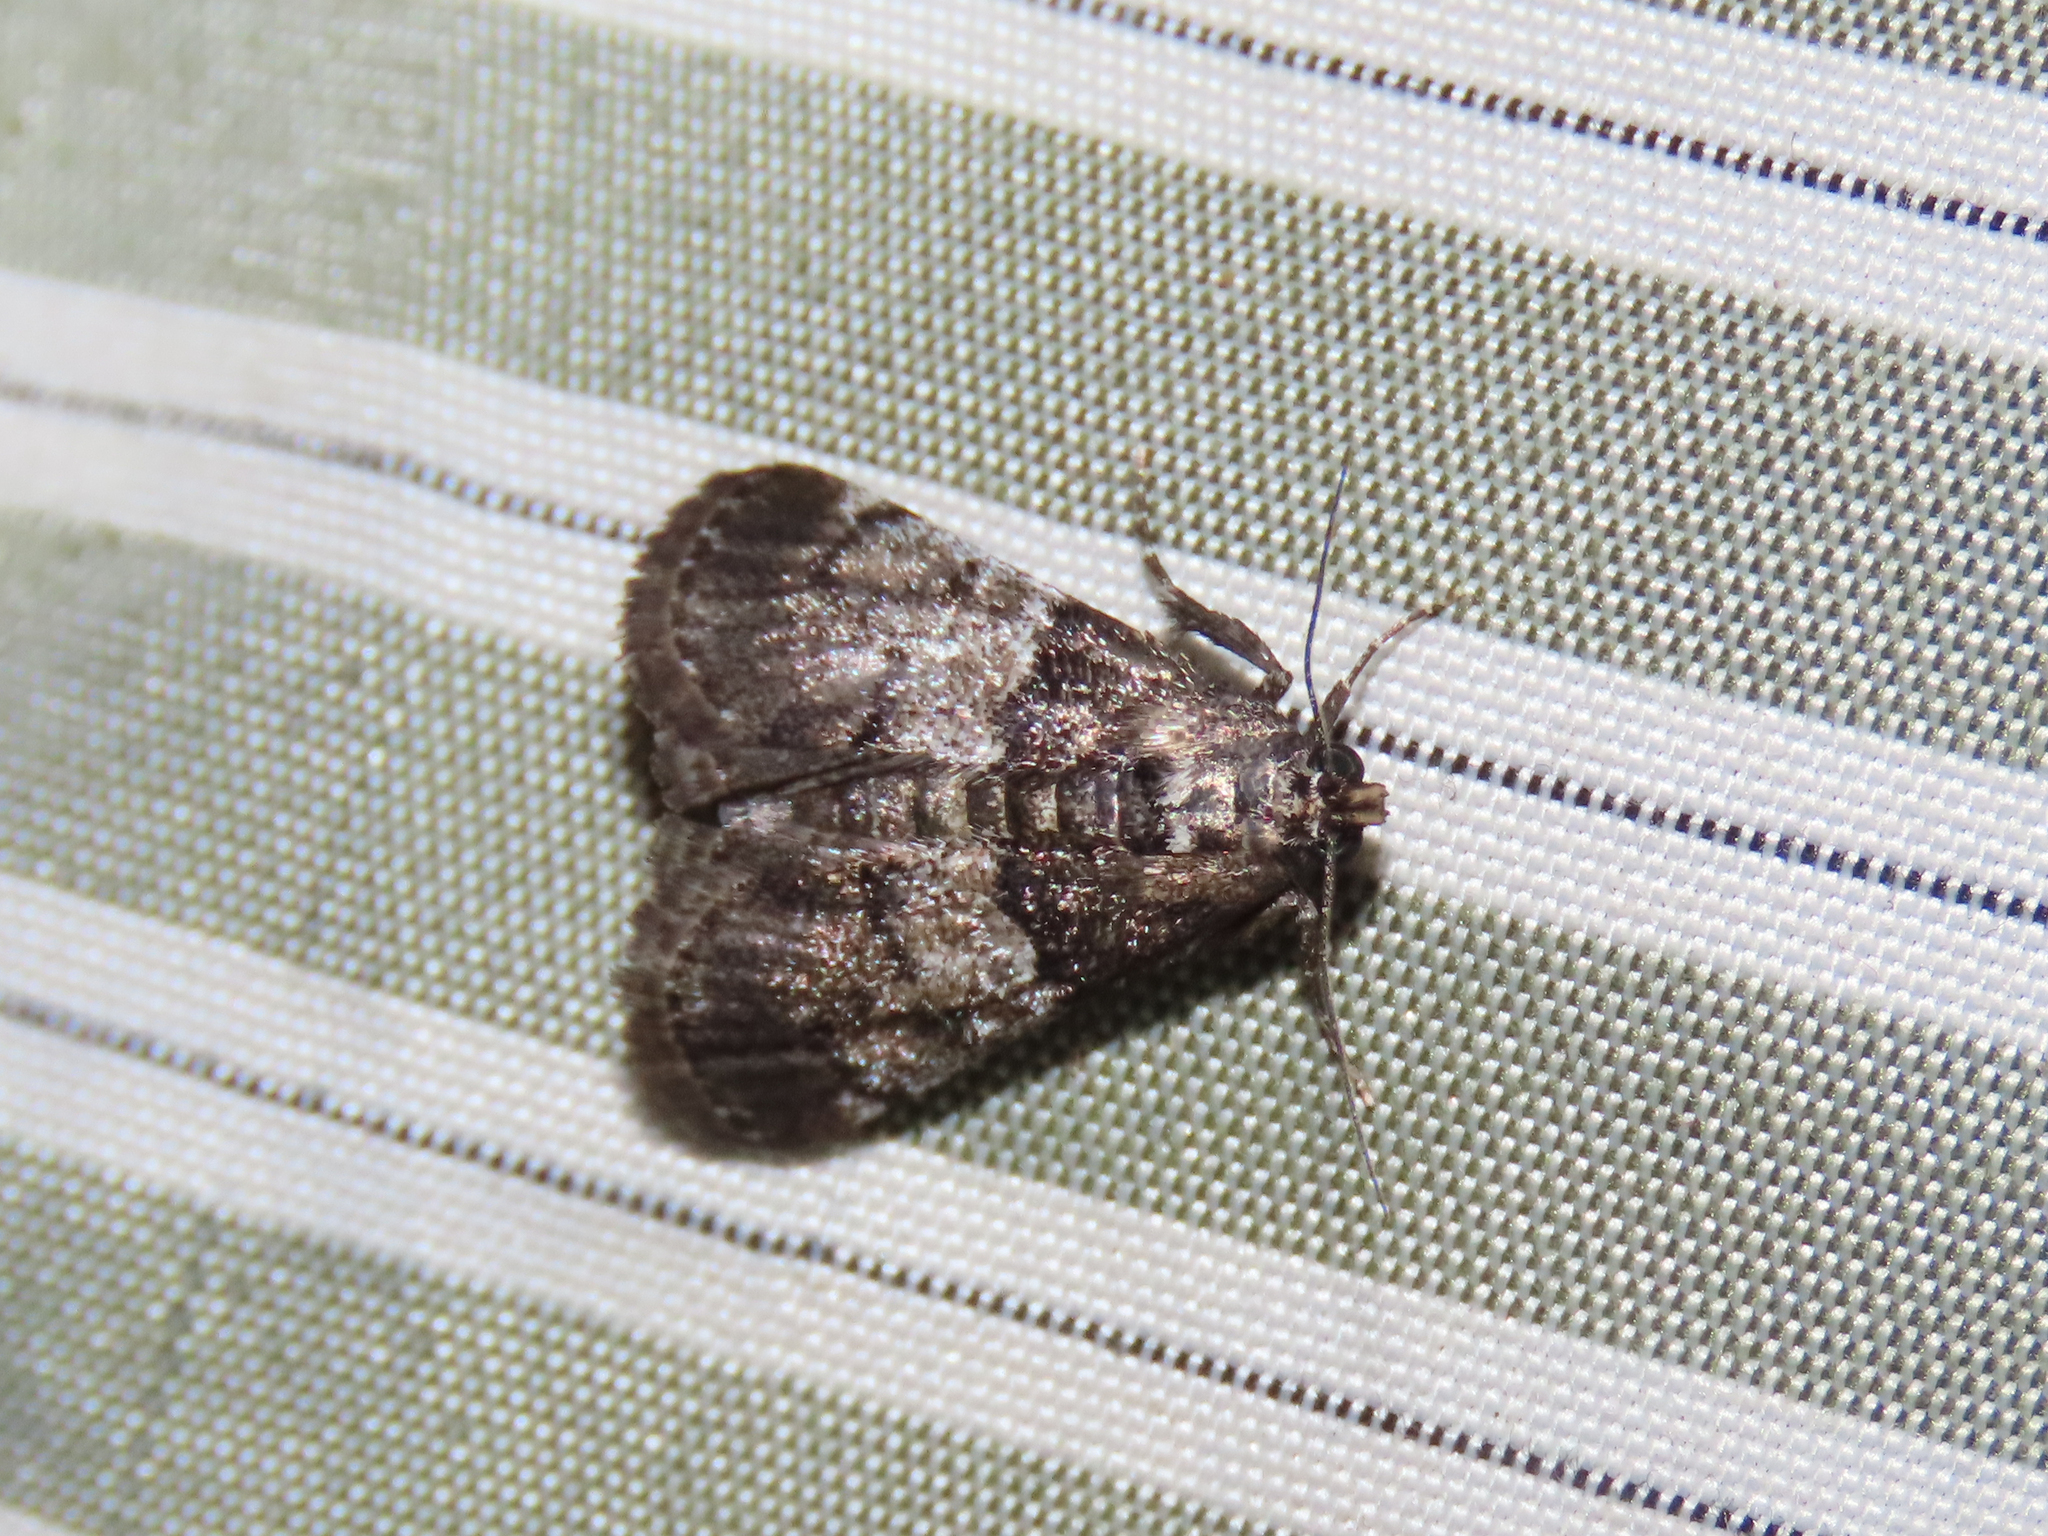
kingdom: Animalia
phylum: Arthropoda
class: Insecta
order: Lepidoptera
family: Pyralidae
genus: Macalla
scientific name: Macalla zelleri
